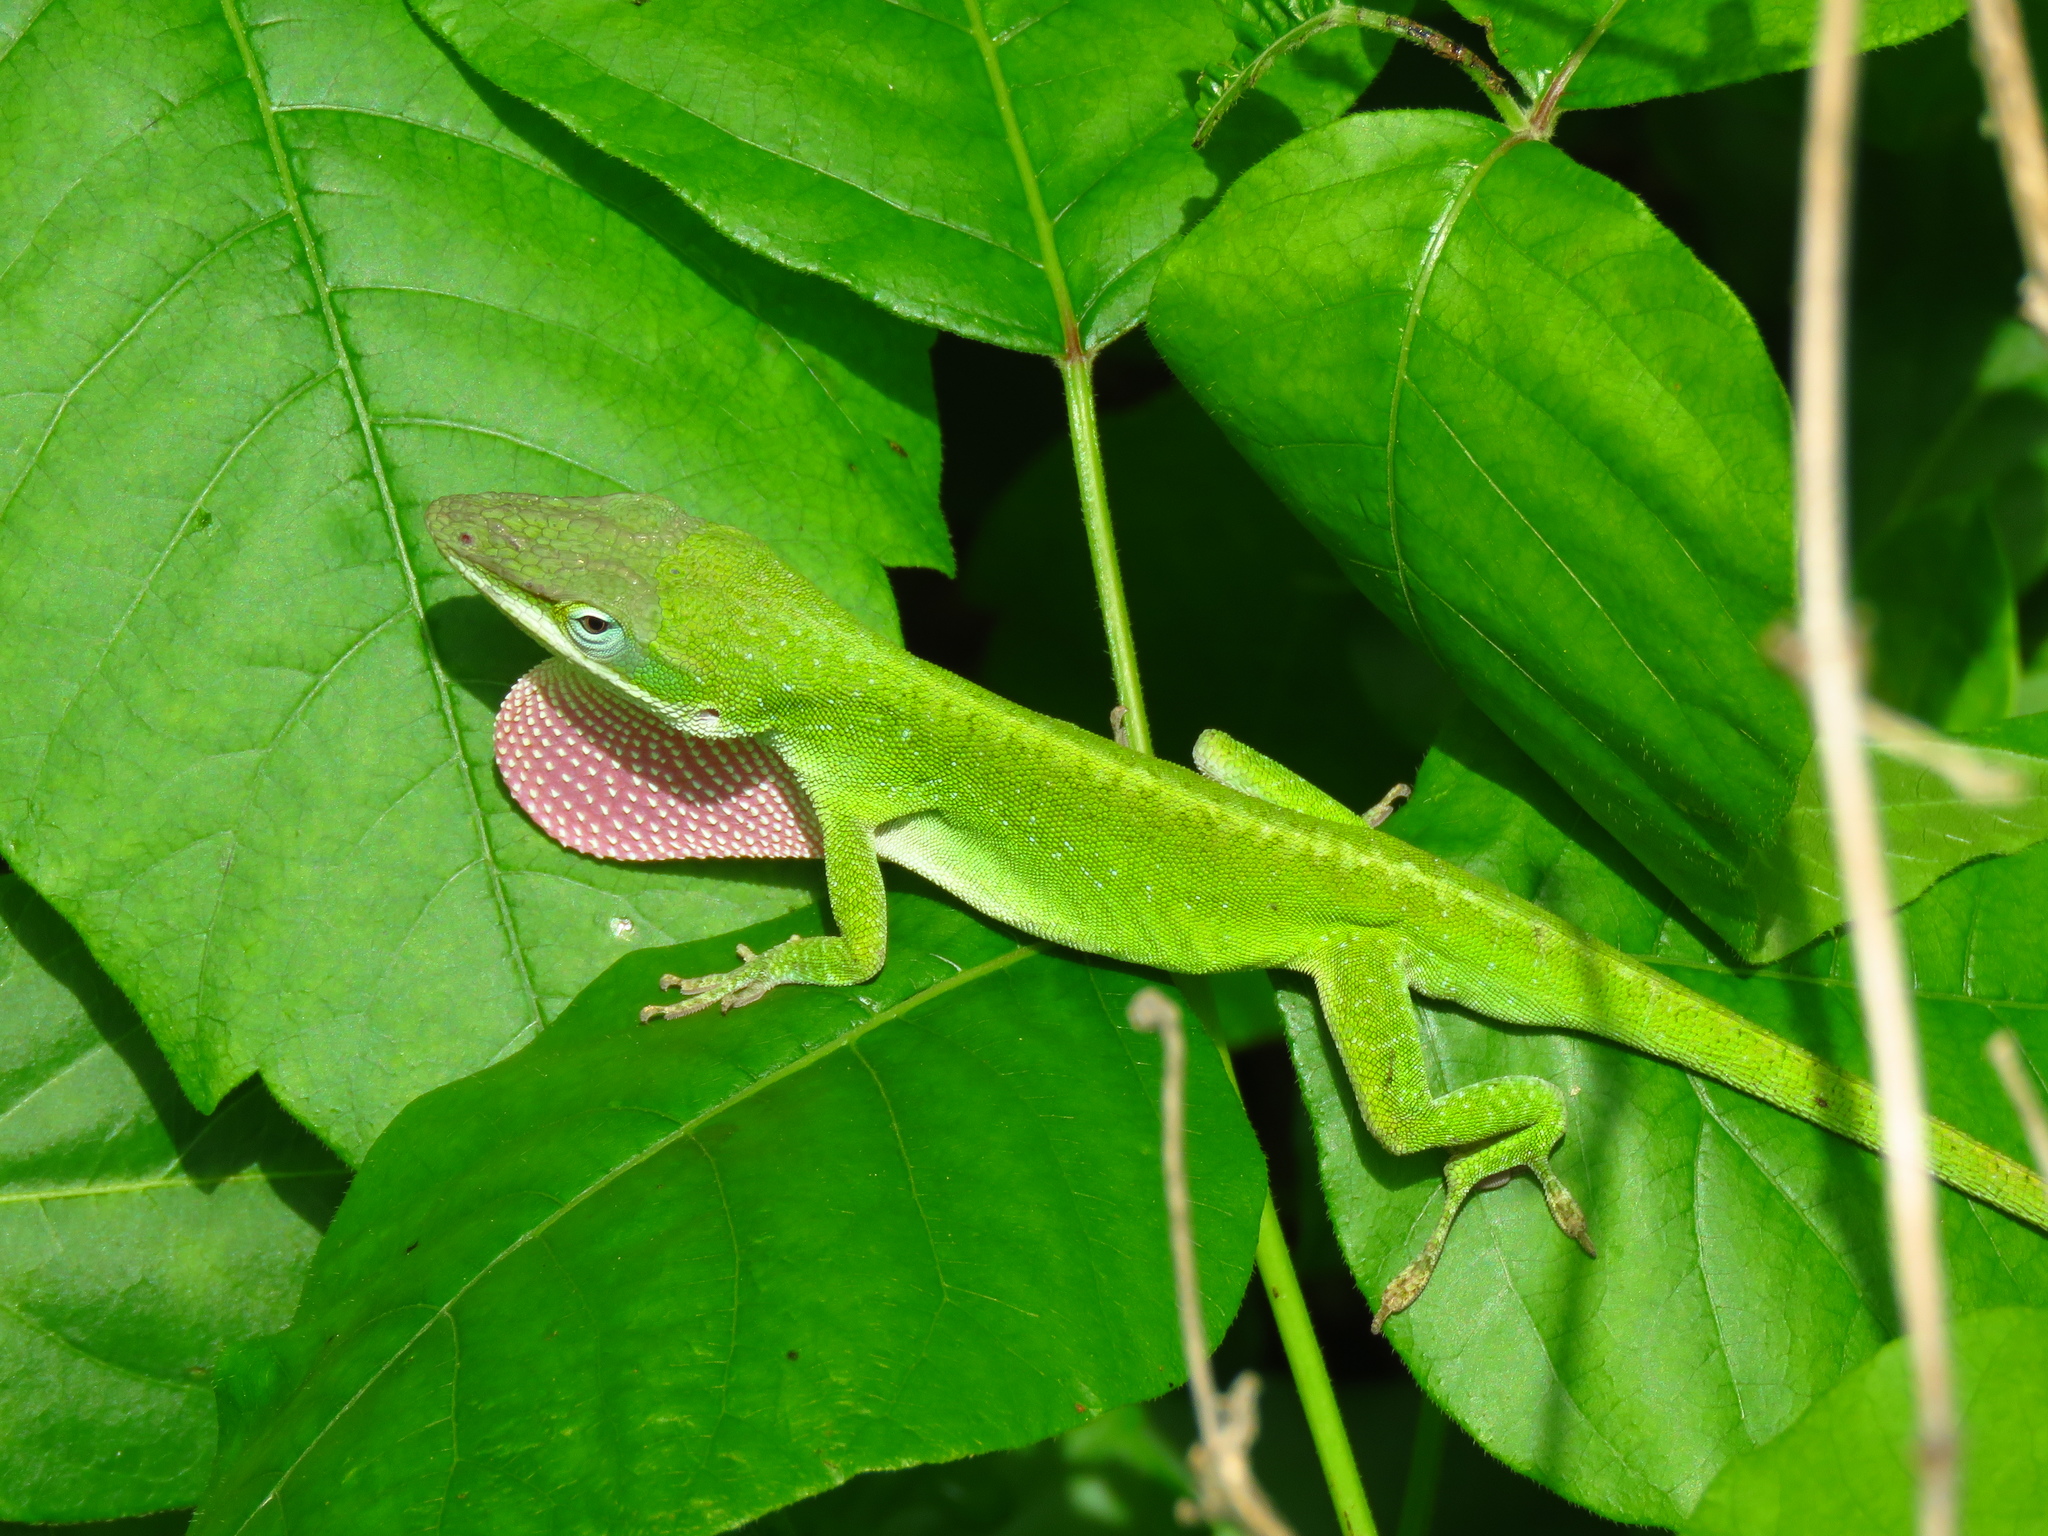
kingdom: Animalia
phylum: Chordata
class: Squamata
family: Dactyloidae
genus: Anolis
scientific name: Anolis carolinensis
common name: Green anole
